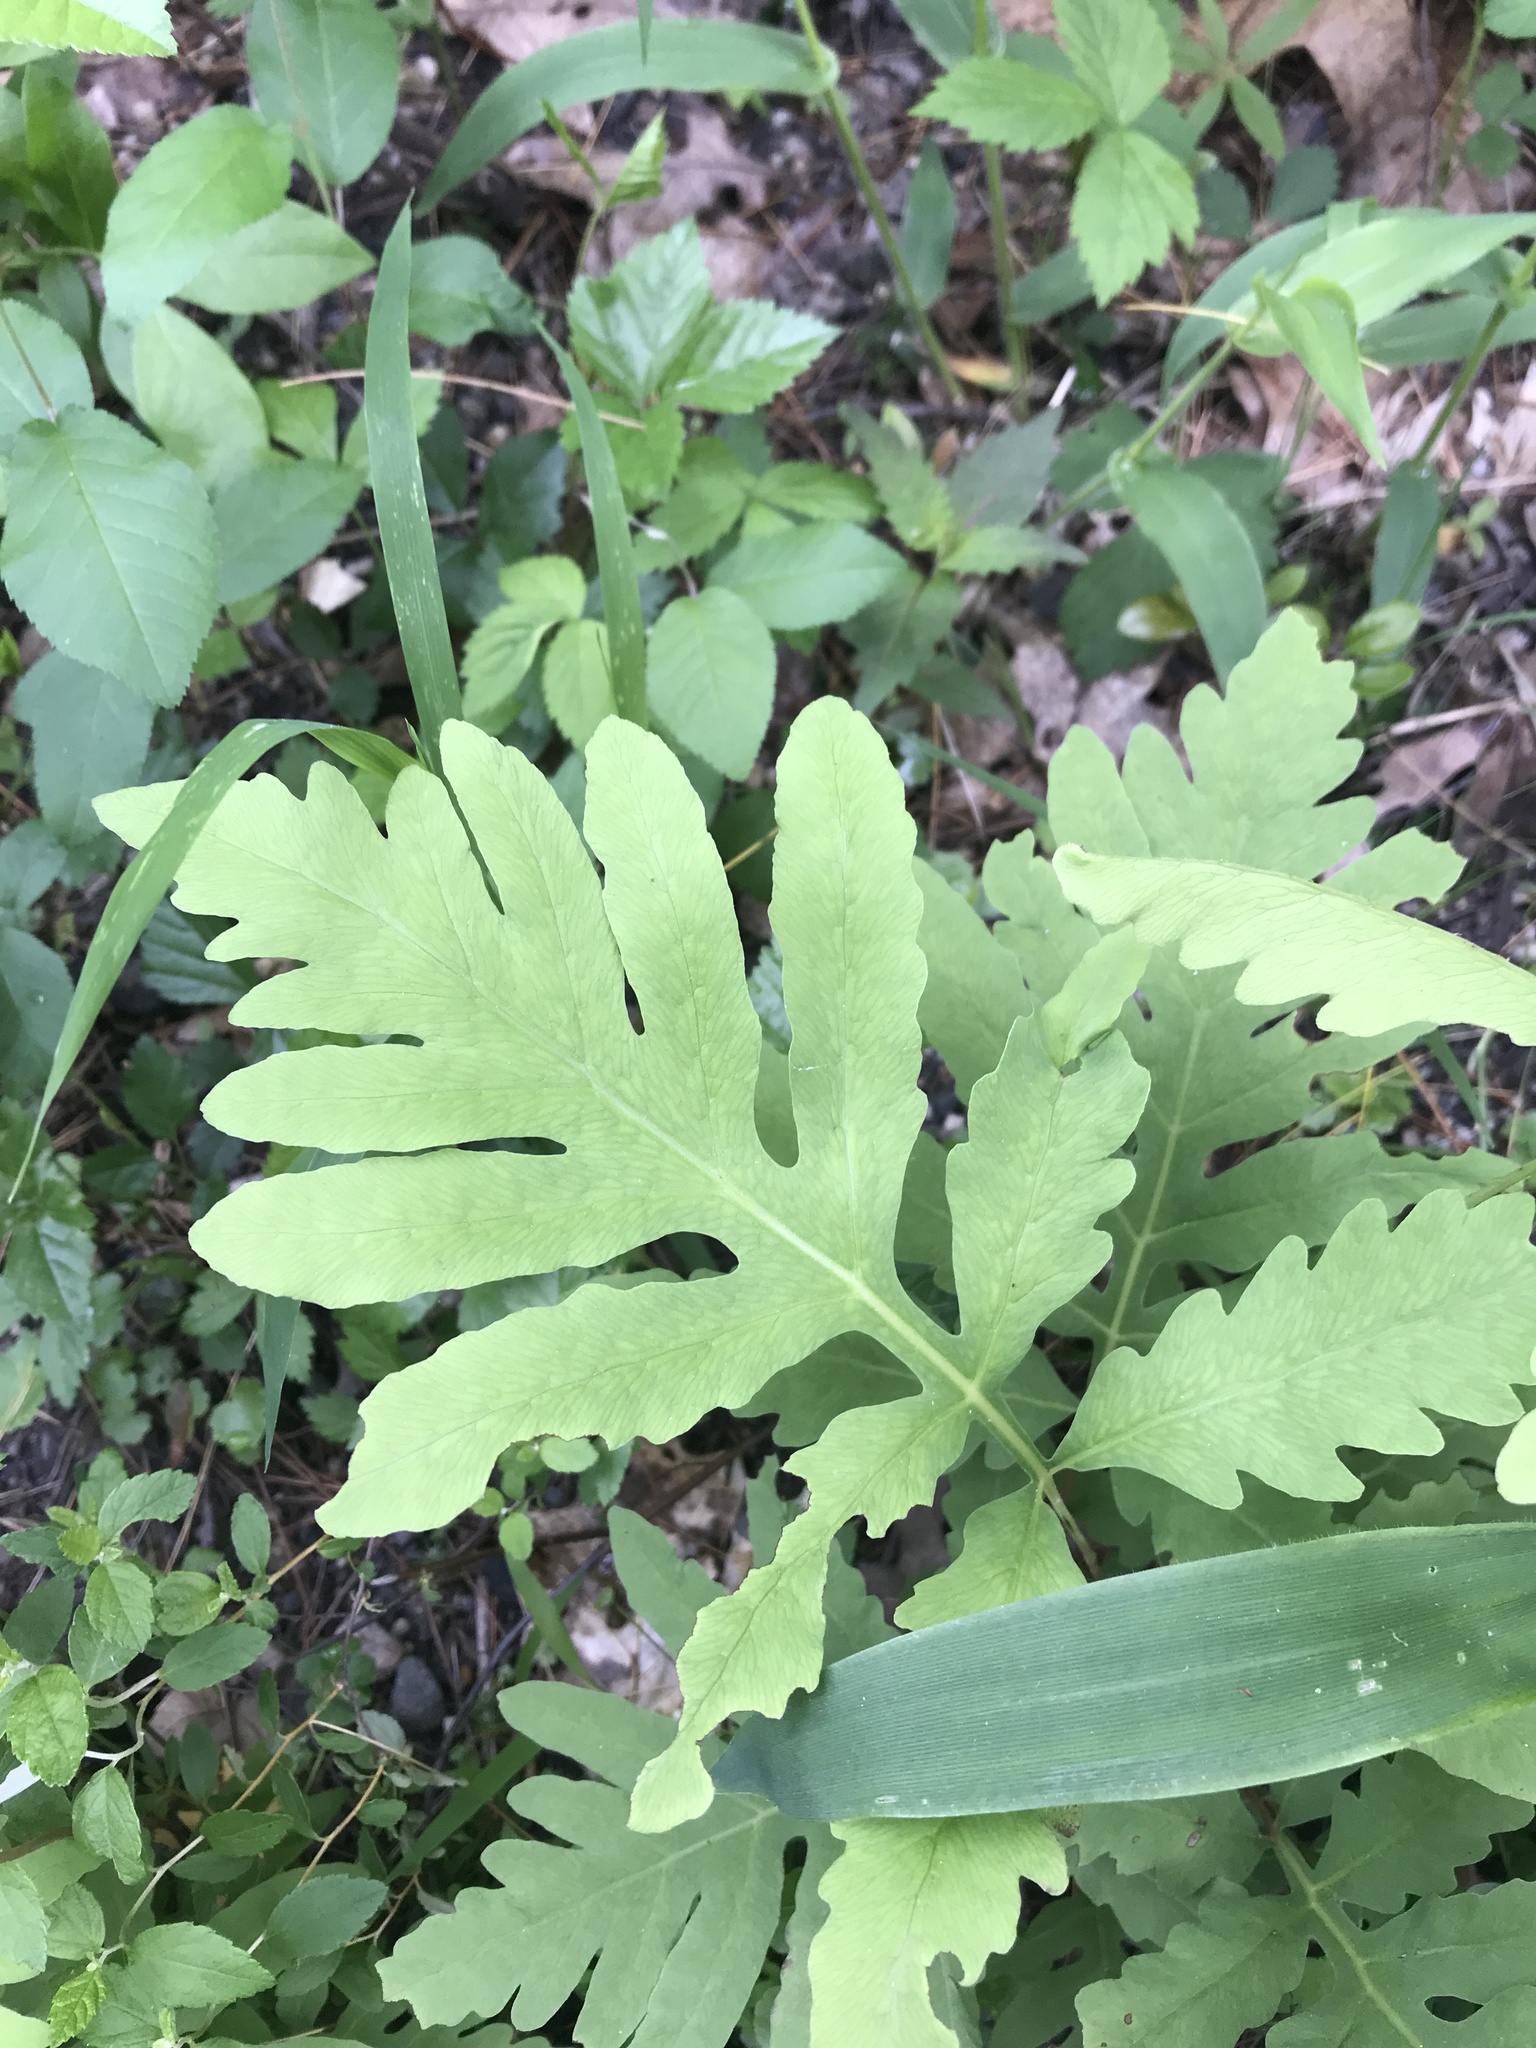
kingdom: Plantae
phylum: Tracheophyta
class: Polypodiopsida
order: Polypodiales
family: Onocleaceae
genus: Onoclea
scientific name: Onoclea sensibilis
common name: Sensitive fern
